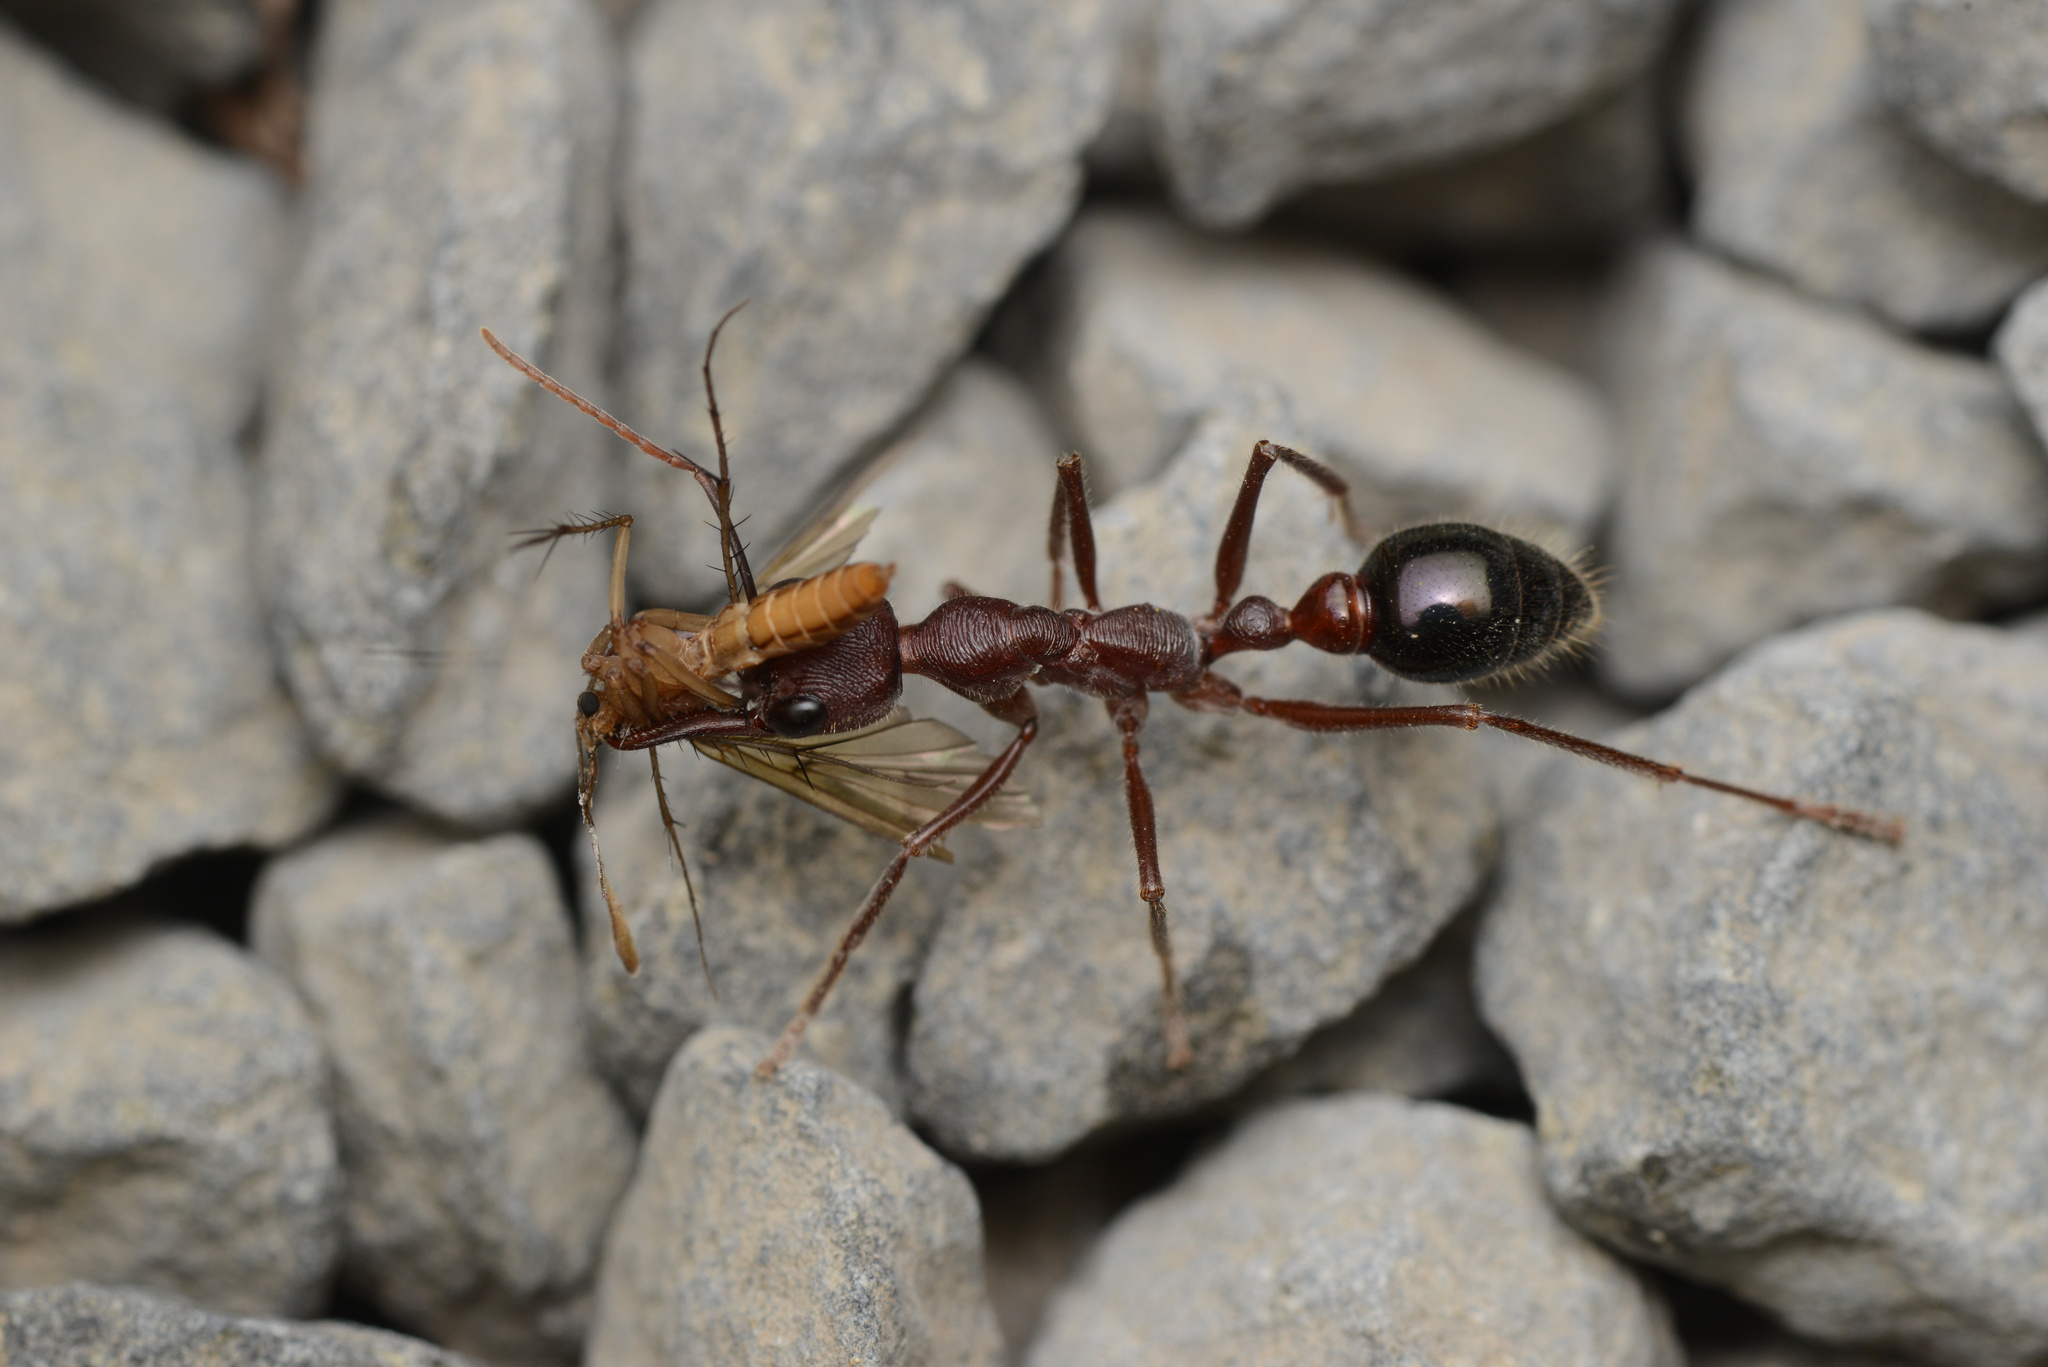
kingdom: Animalia
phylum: Arthropoda
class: Insecta
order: Hymenoptera
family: Formicidae
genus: Myrmecia
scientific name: Myrmecia forficata
